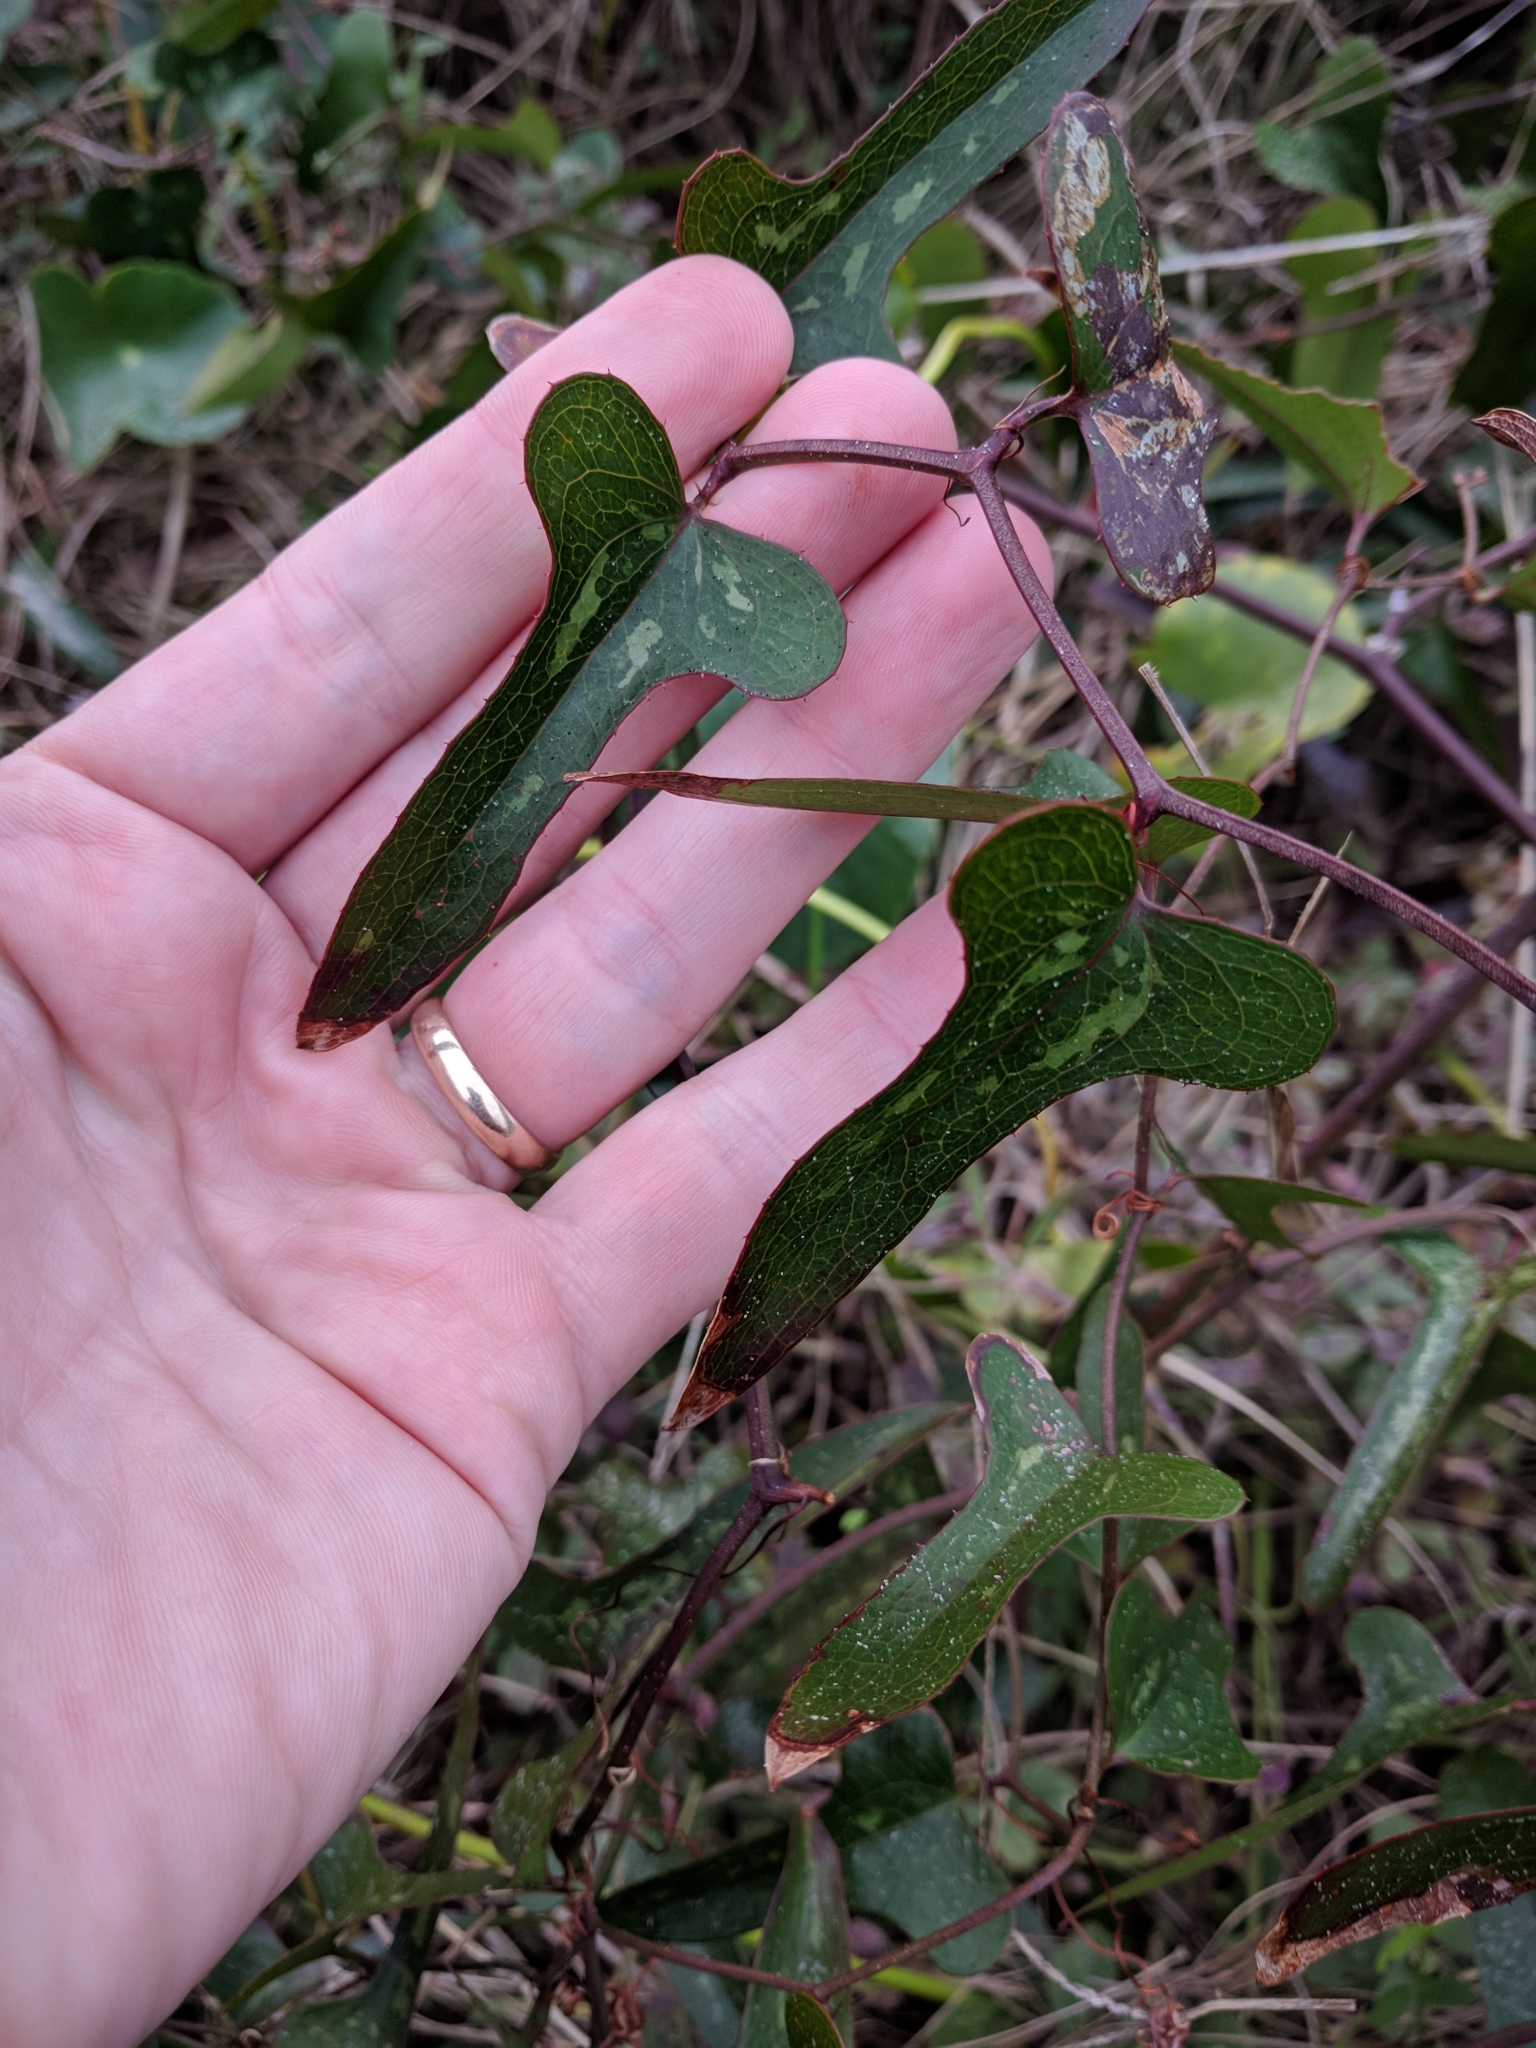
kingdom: Plantae
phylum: Tracheophyta
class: Liliopsida
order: Liliales
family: Smilacaceae
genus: Smilax
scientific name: Smilax bona-nox
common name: Catbrier
